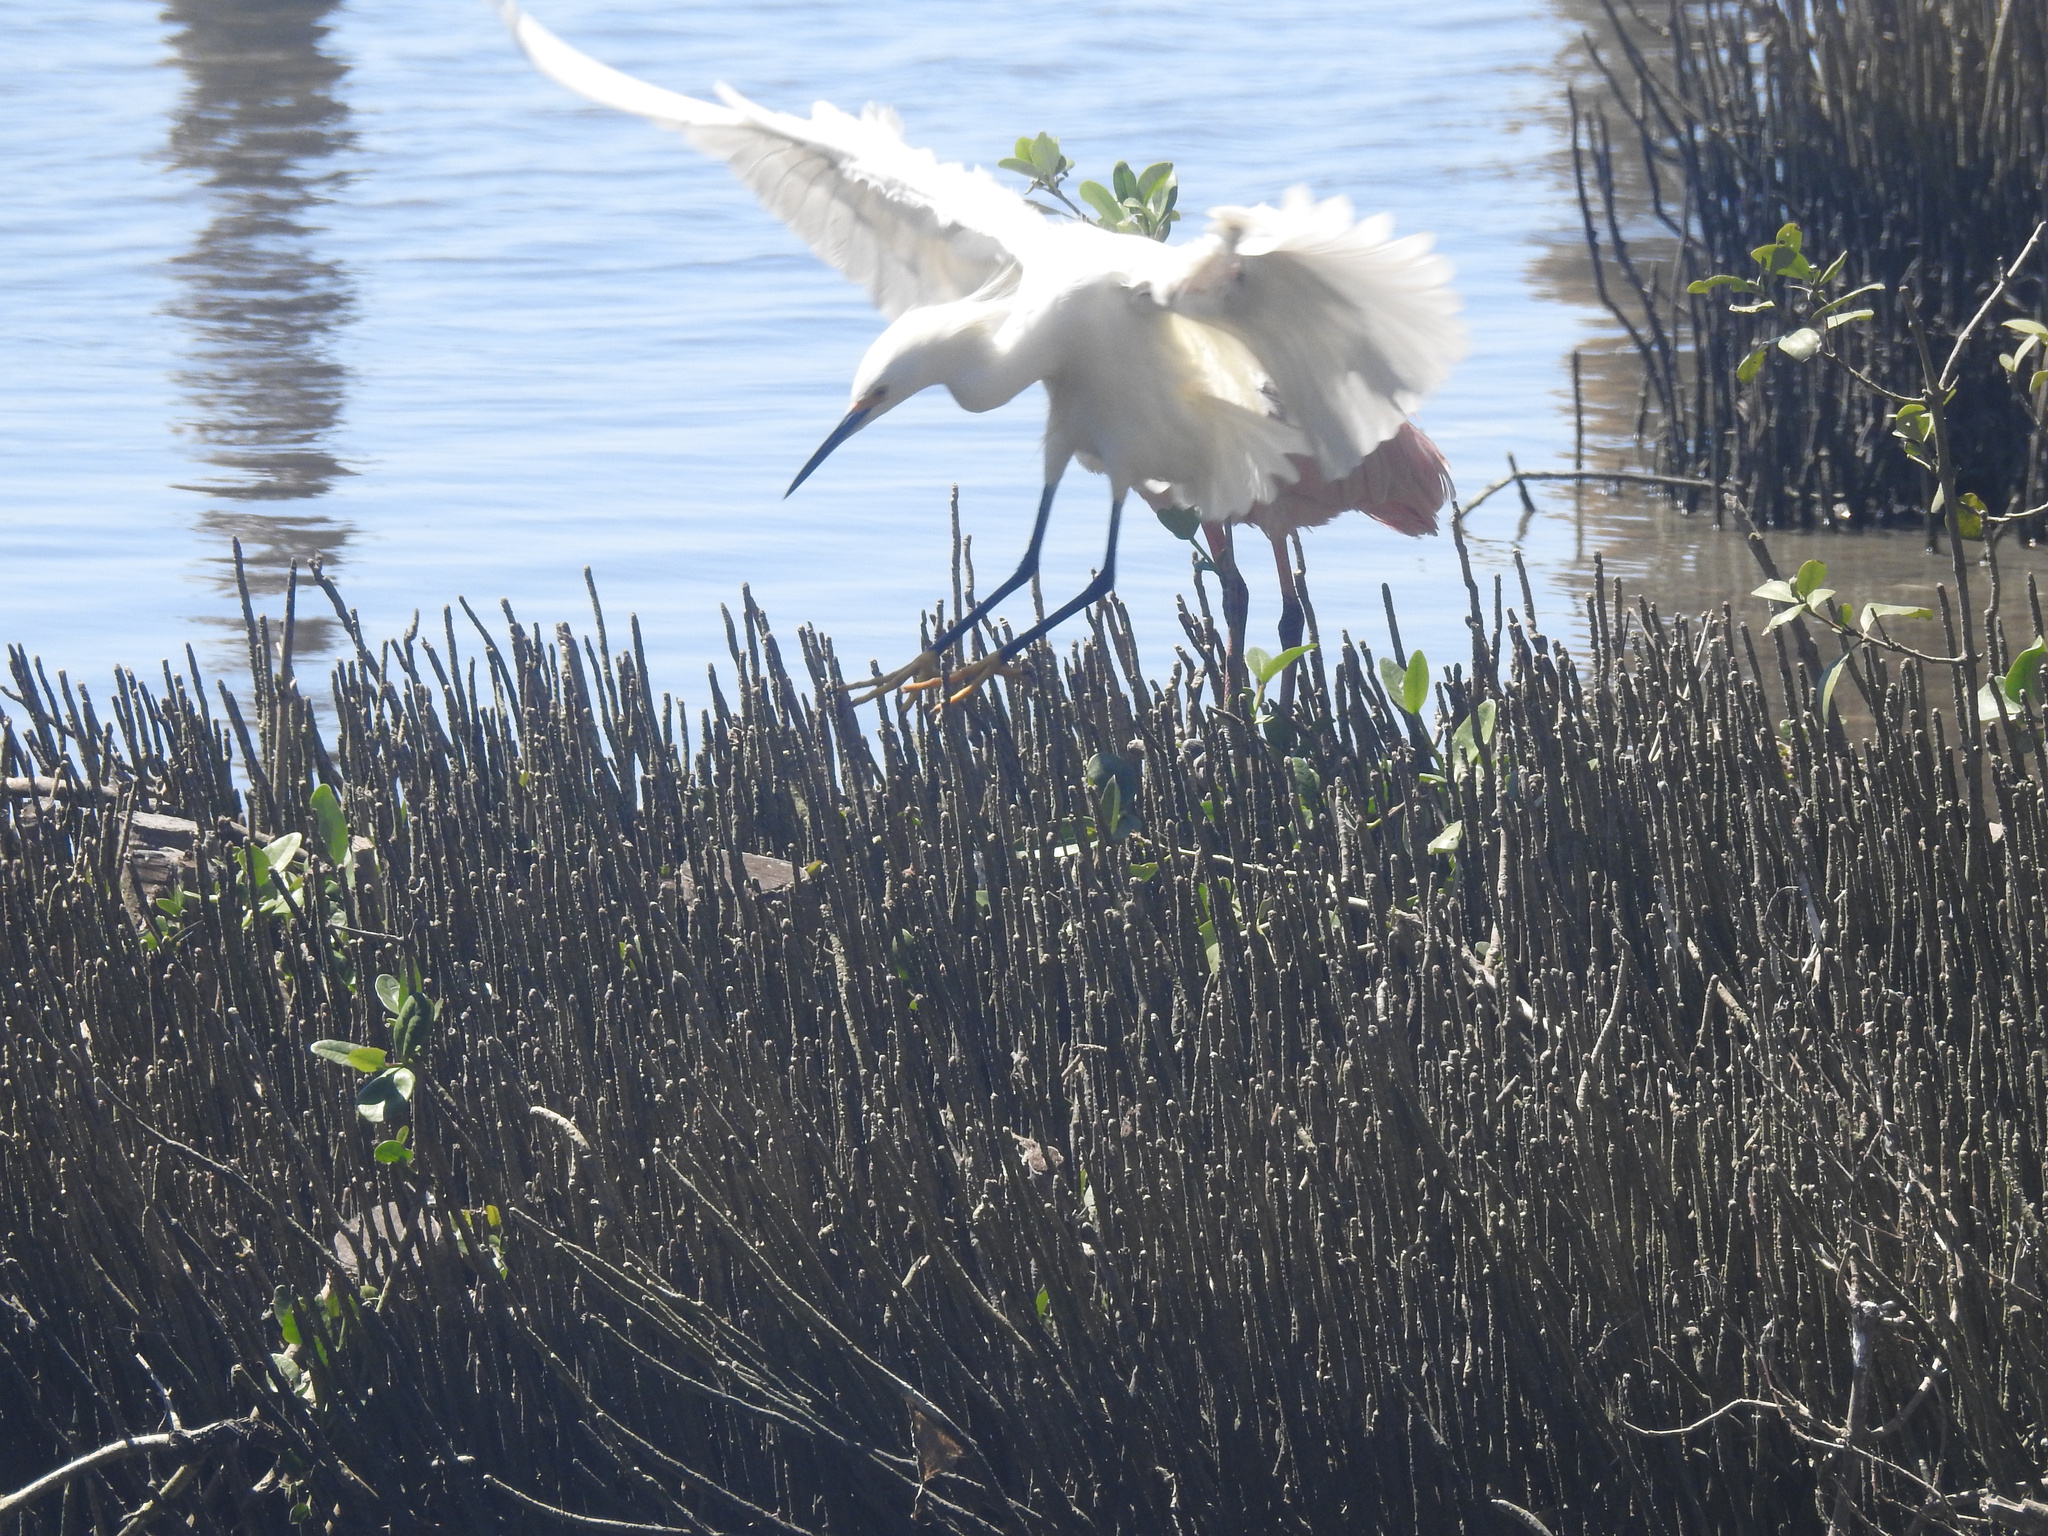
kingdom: Animalia
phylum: Chordata
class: Aves
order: Pelecaniformes
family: Ardeidae
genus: Egretta
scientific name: Egretta thula
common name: Snowy egret
